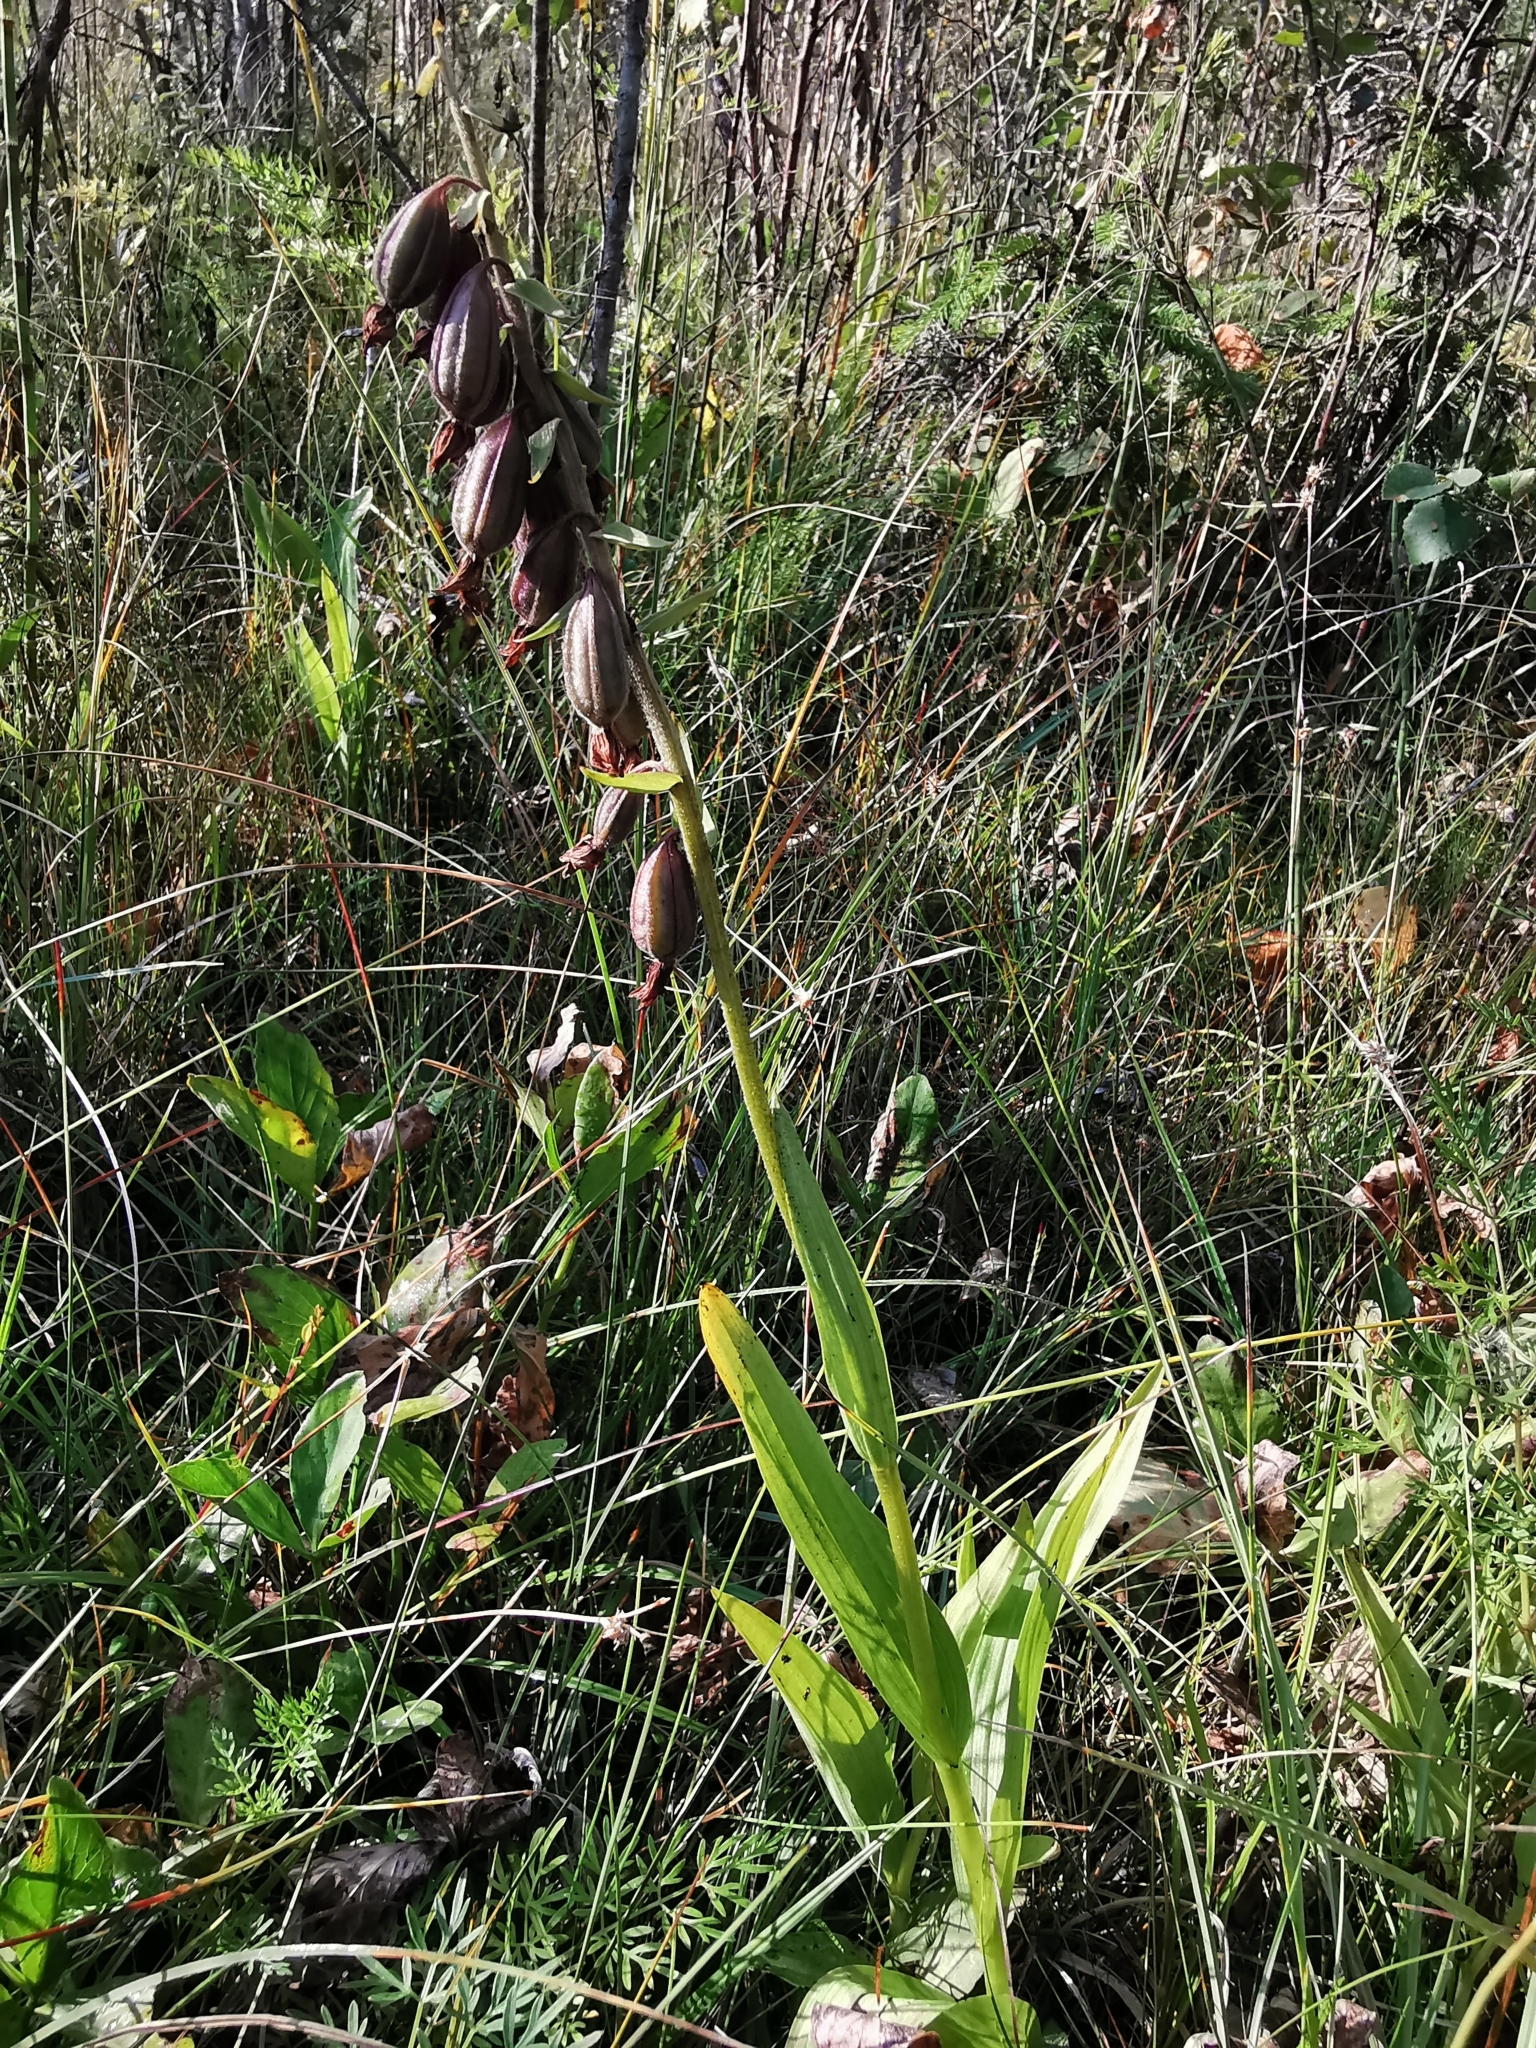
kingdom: Plantae
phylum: Tracheophyta
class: Liliopsida
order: Asparagales
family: Orchidaceae
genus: Epipactis
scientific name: Epipactis palustris
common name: Marsh helleborine
